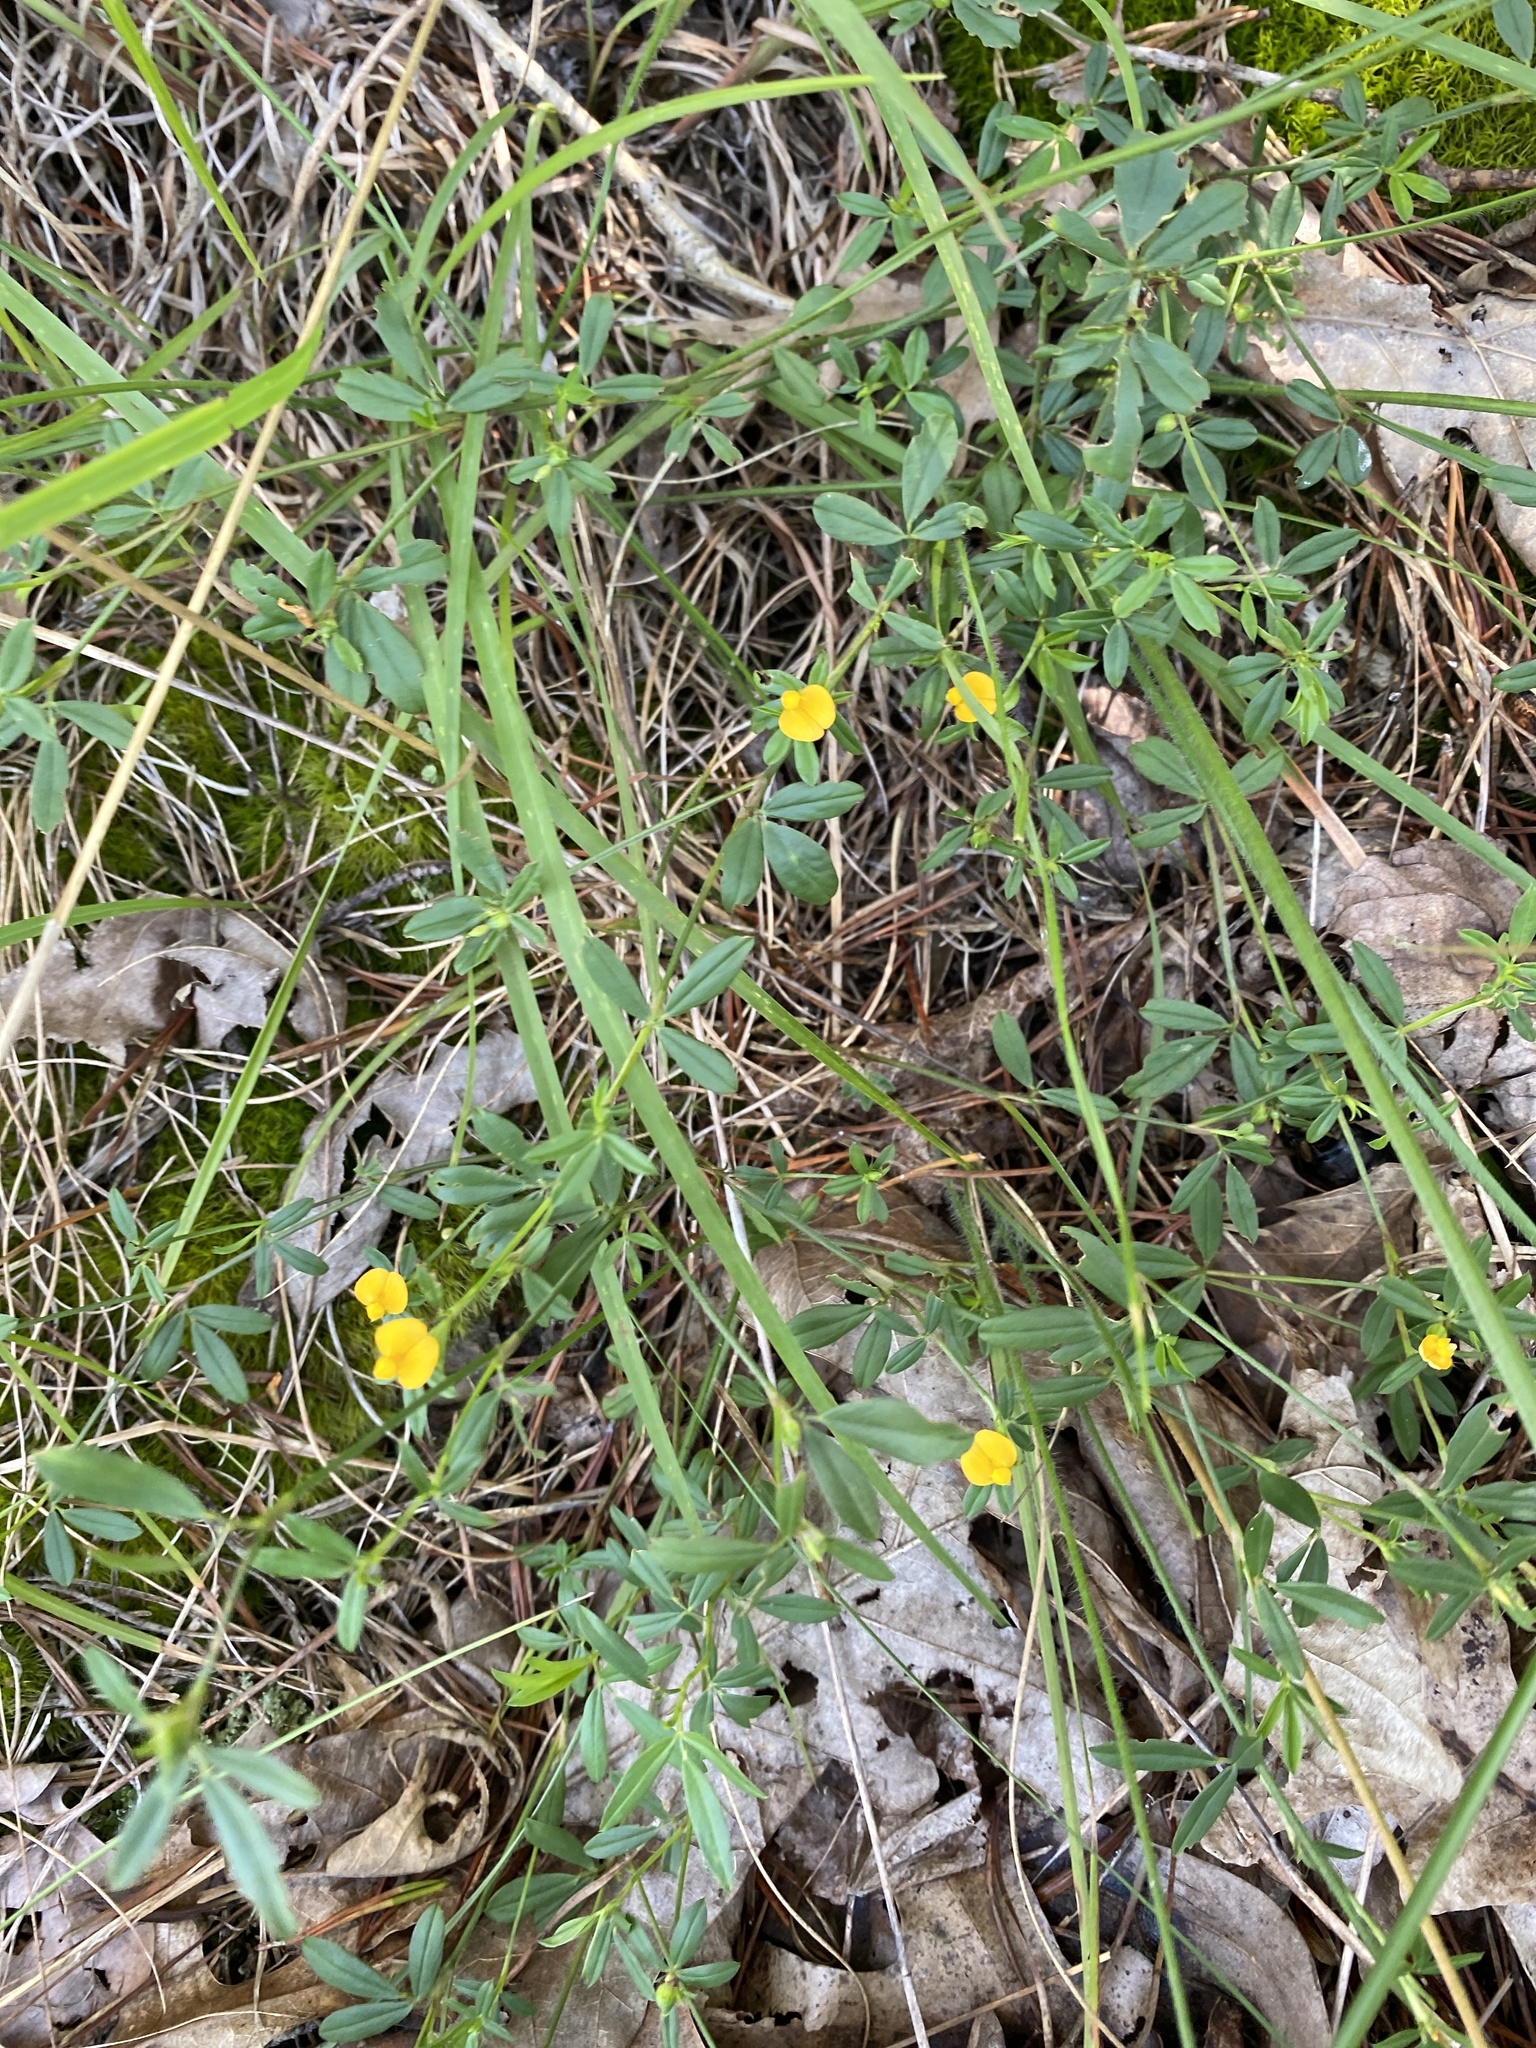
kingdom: Plantae
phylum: Tracheophyta
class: Magnoliopsida
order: Fabales
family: Fabaceae
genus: Stylosanthes
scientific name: Stylosanthes biflora
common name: Two-flower pencil-flower
